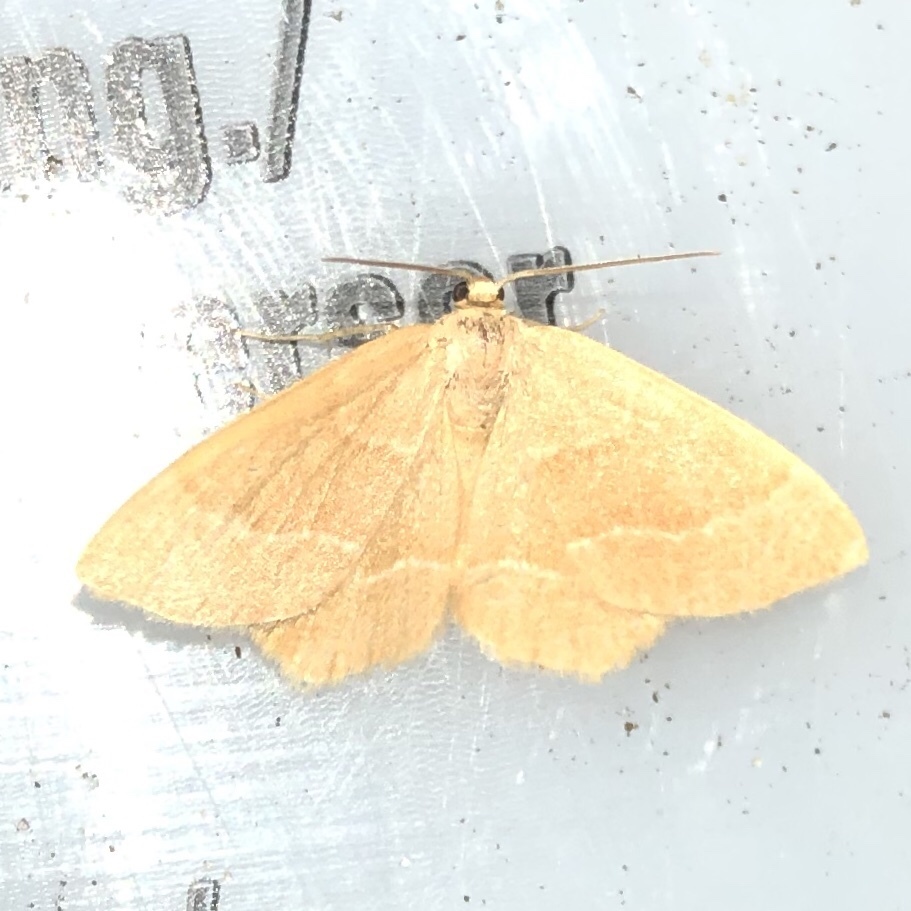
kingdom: Animalia
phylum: Arthropoda
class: Insecta
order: Lepidoptera
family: Geometridae
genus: Thalera
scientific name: Thalera pistasciaria
